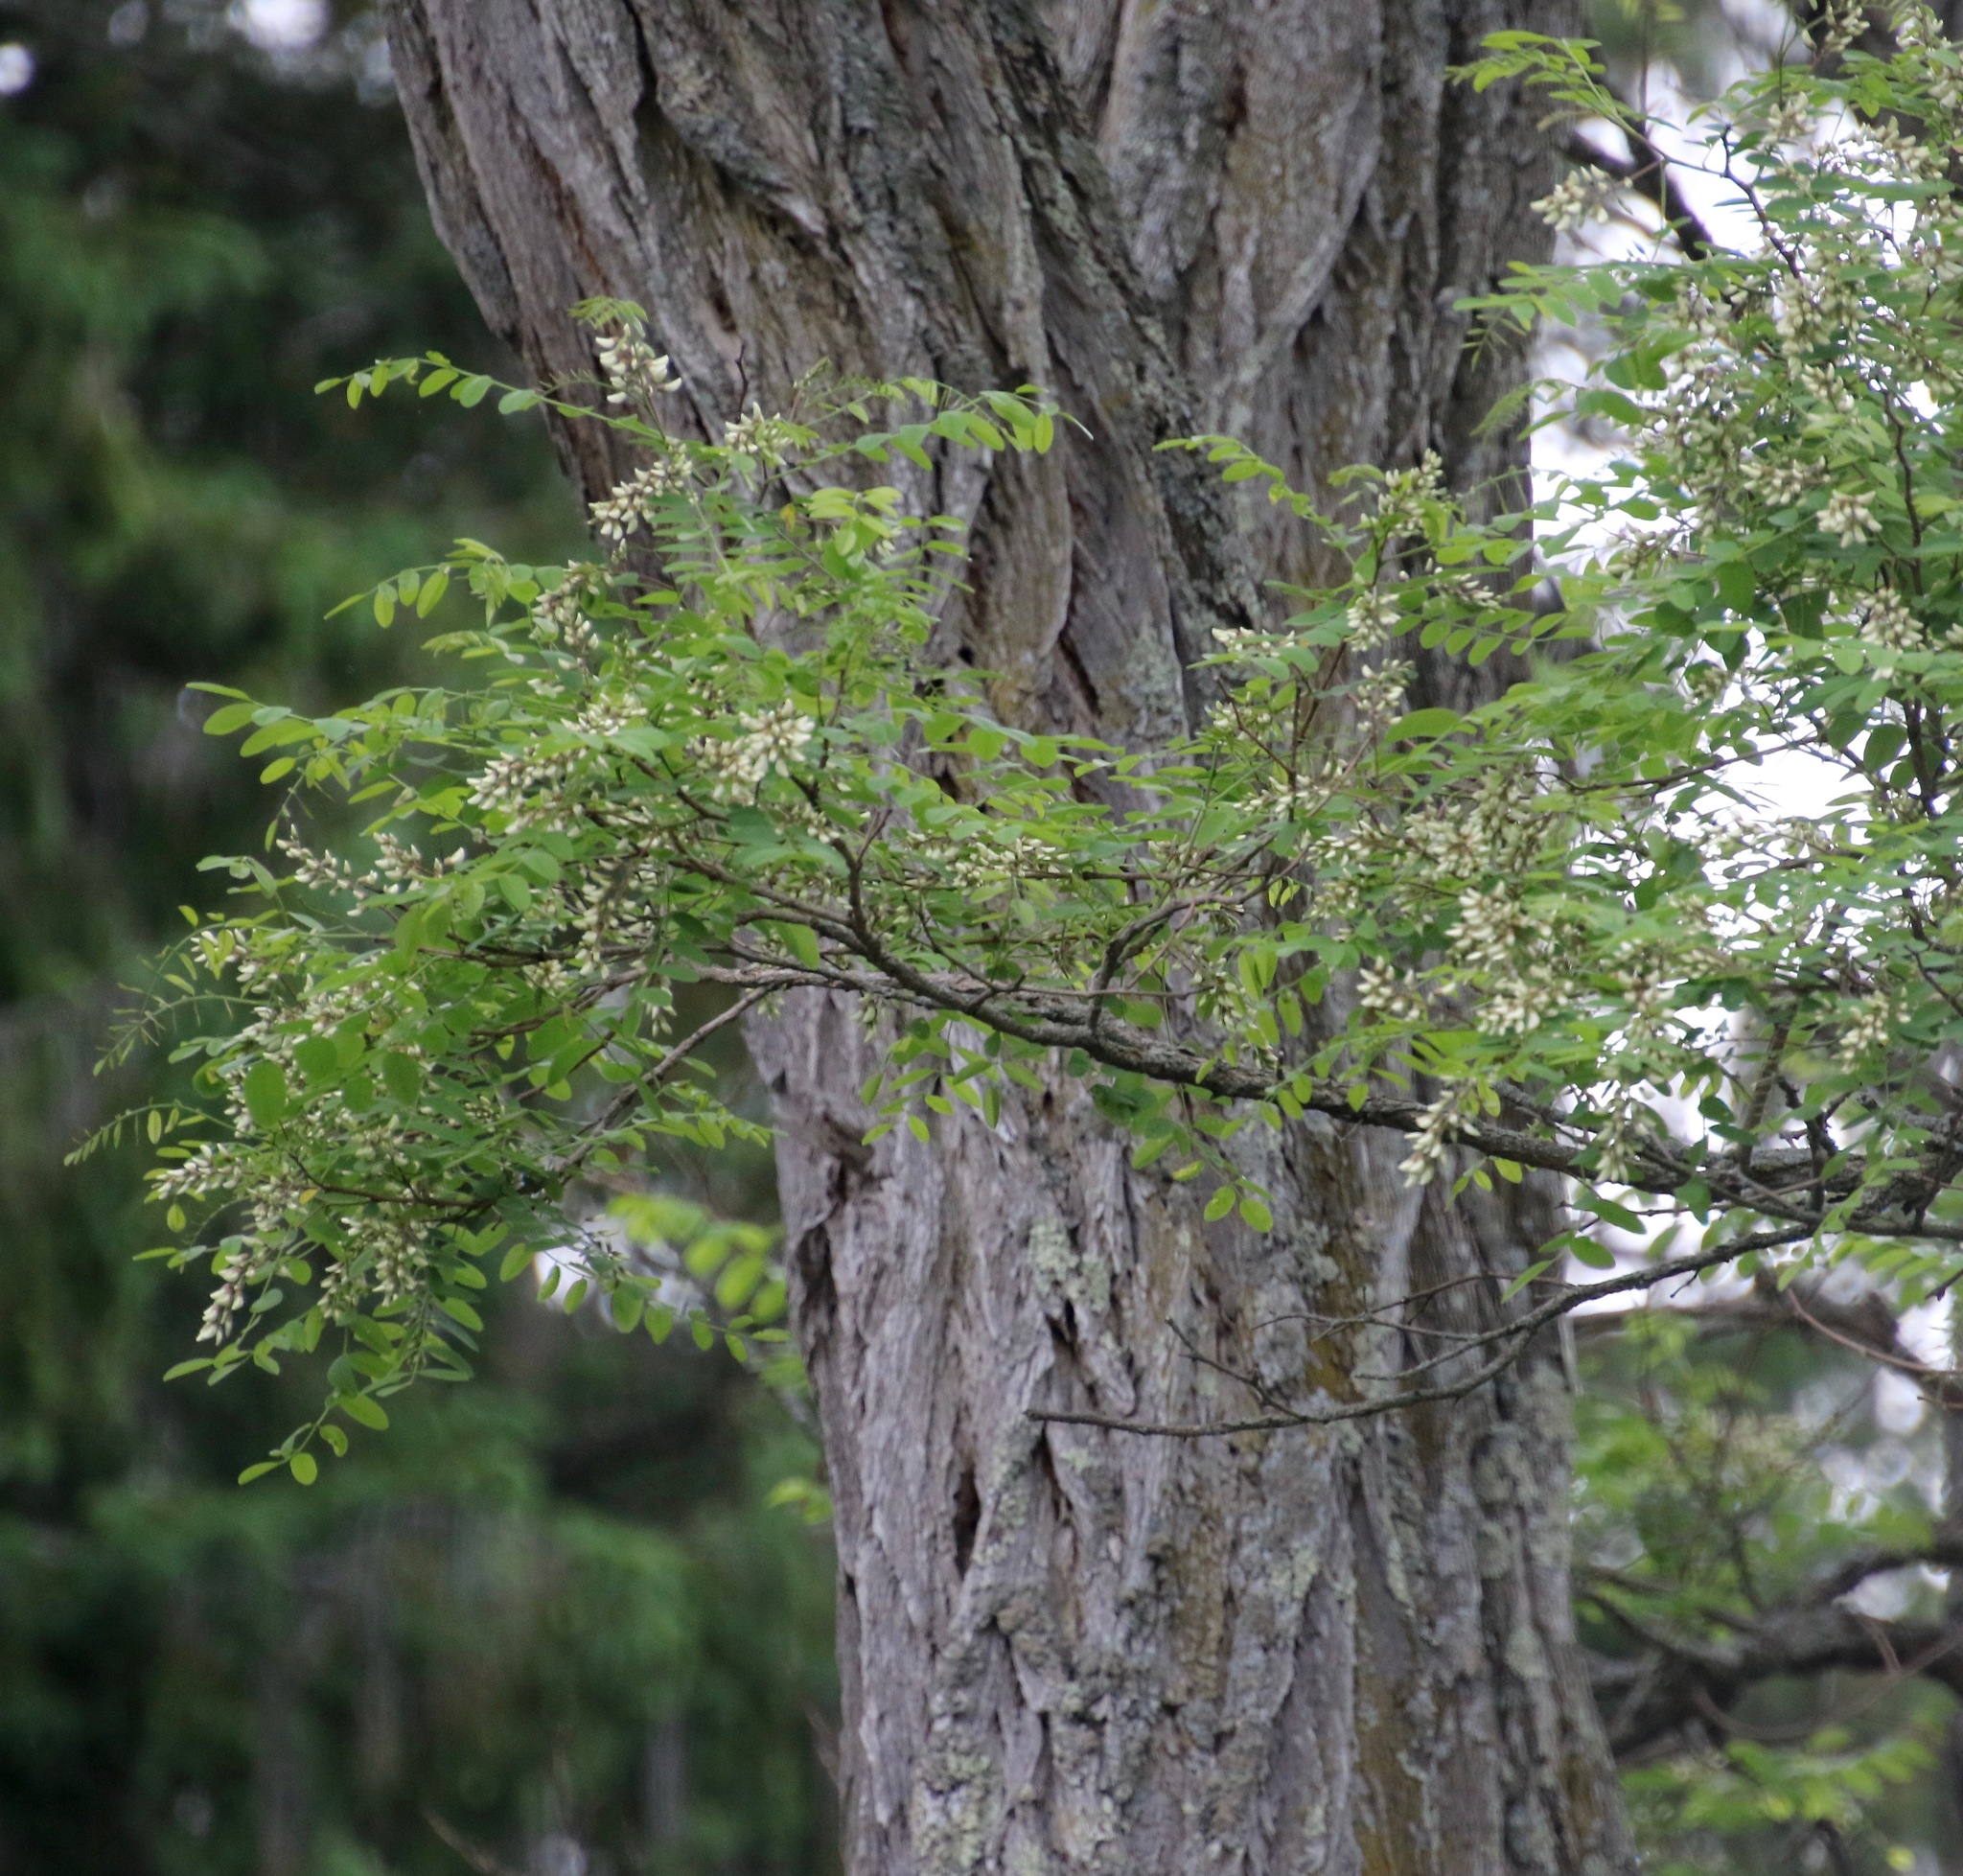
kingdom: Plantae
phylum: Tracheophyta
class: Magnoliopsida
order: Fabales
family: Fabaceae
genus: Robinia
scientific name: Robinia pseudoacacia
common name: Black locust
